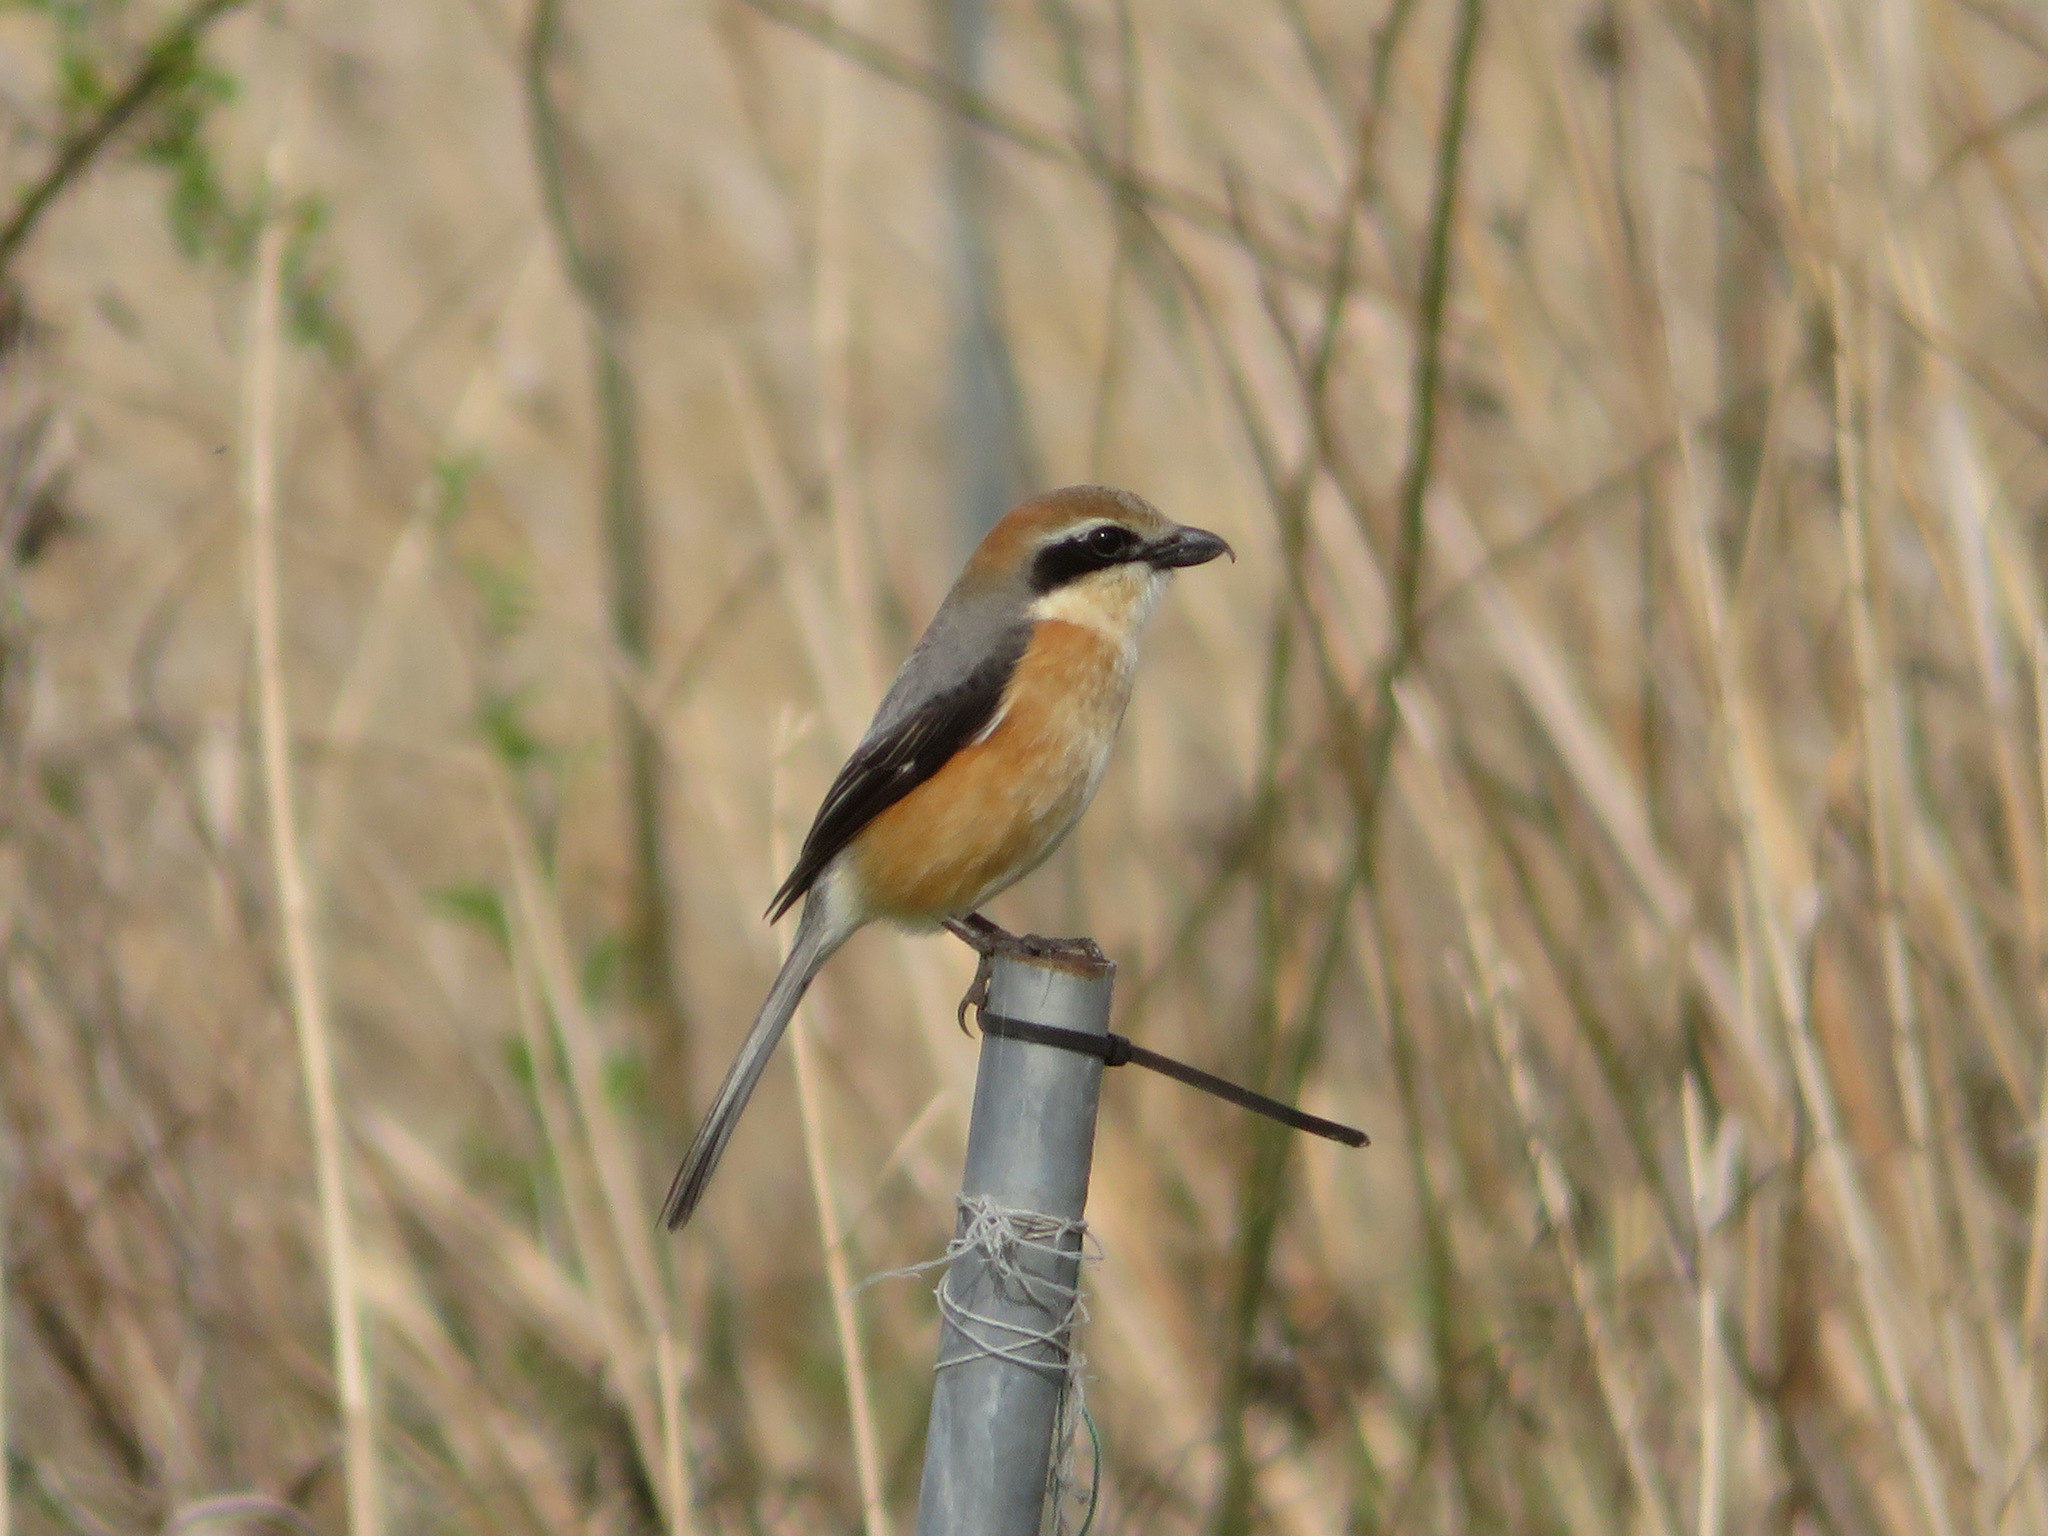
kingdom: Animalia
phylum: Chordata
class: Aves
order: Passeriformes
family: Laniidae
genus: Lanius
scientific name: Lanius bucephalus
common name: Bull-headed shrike
